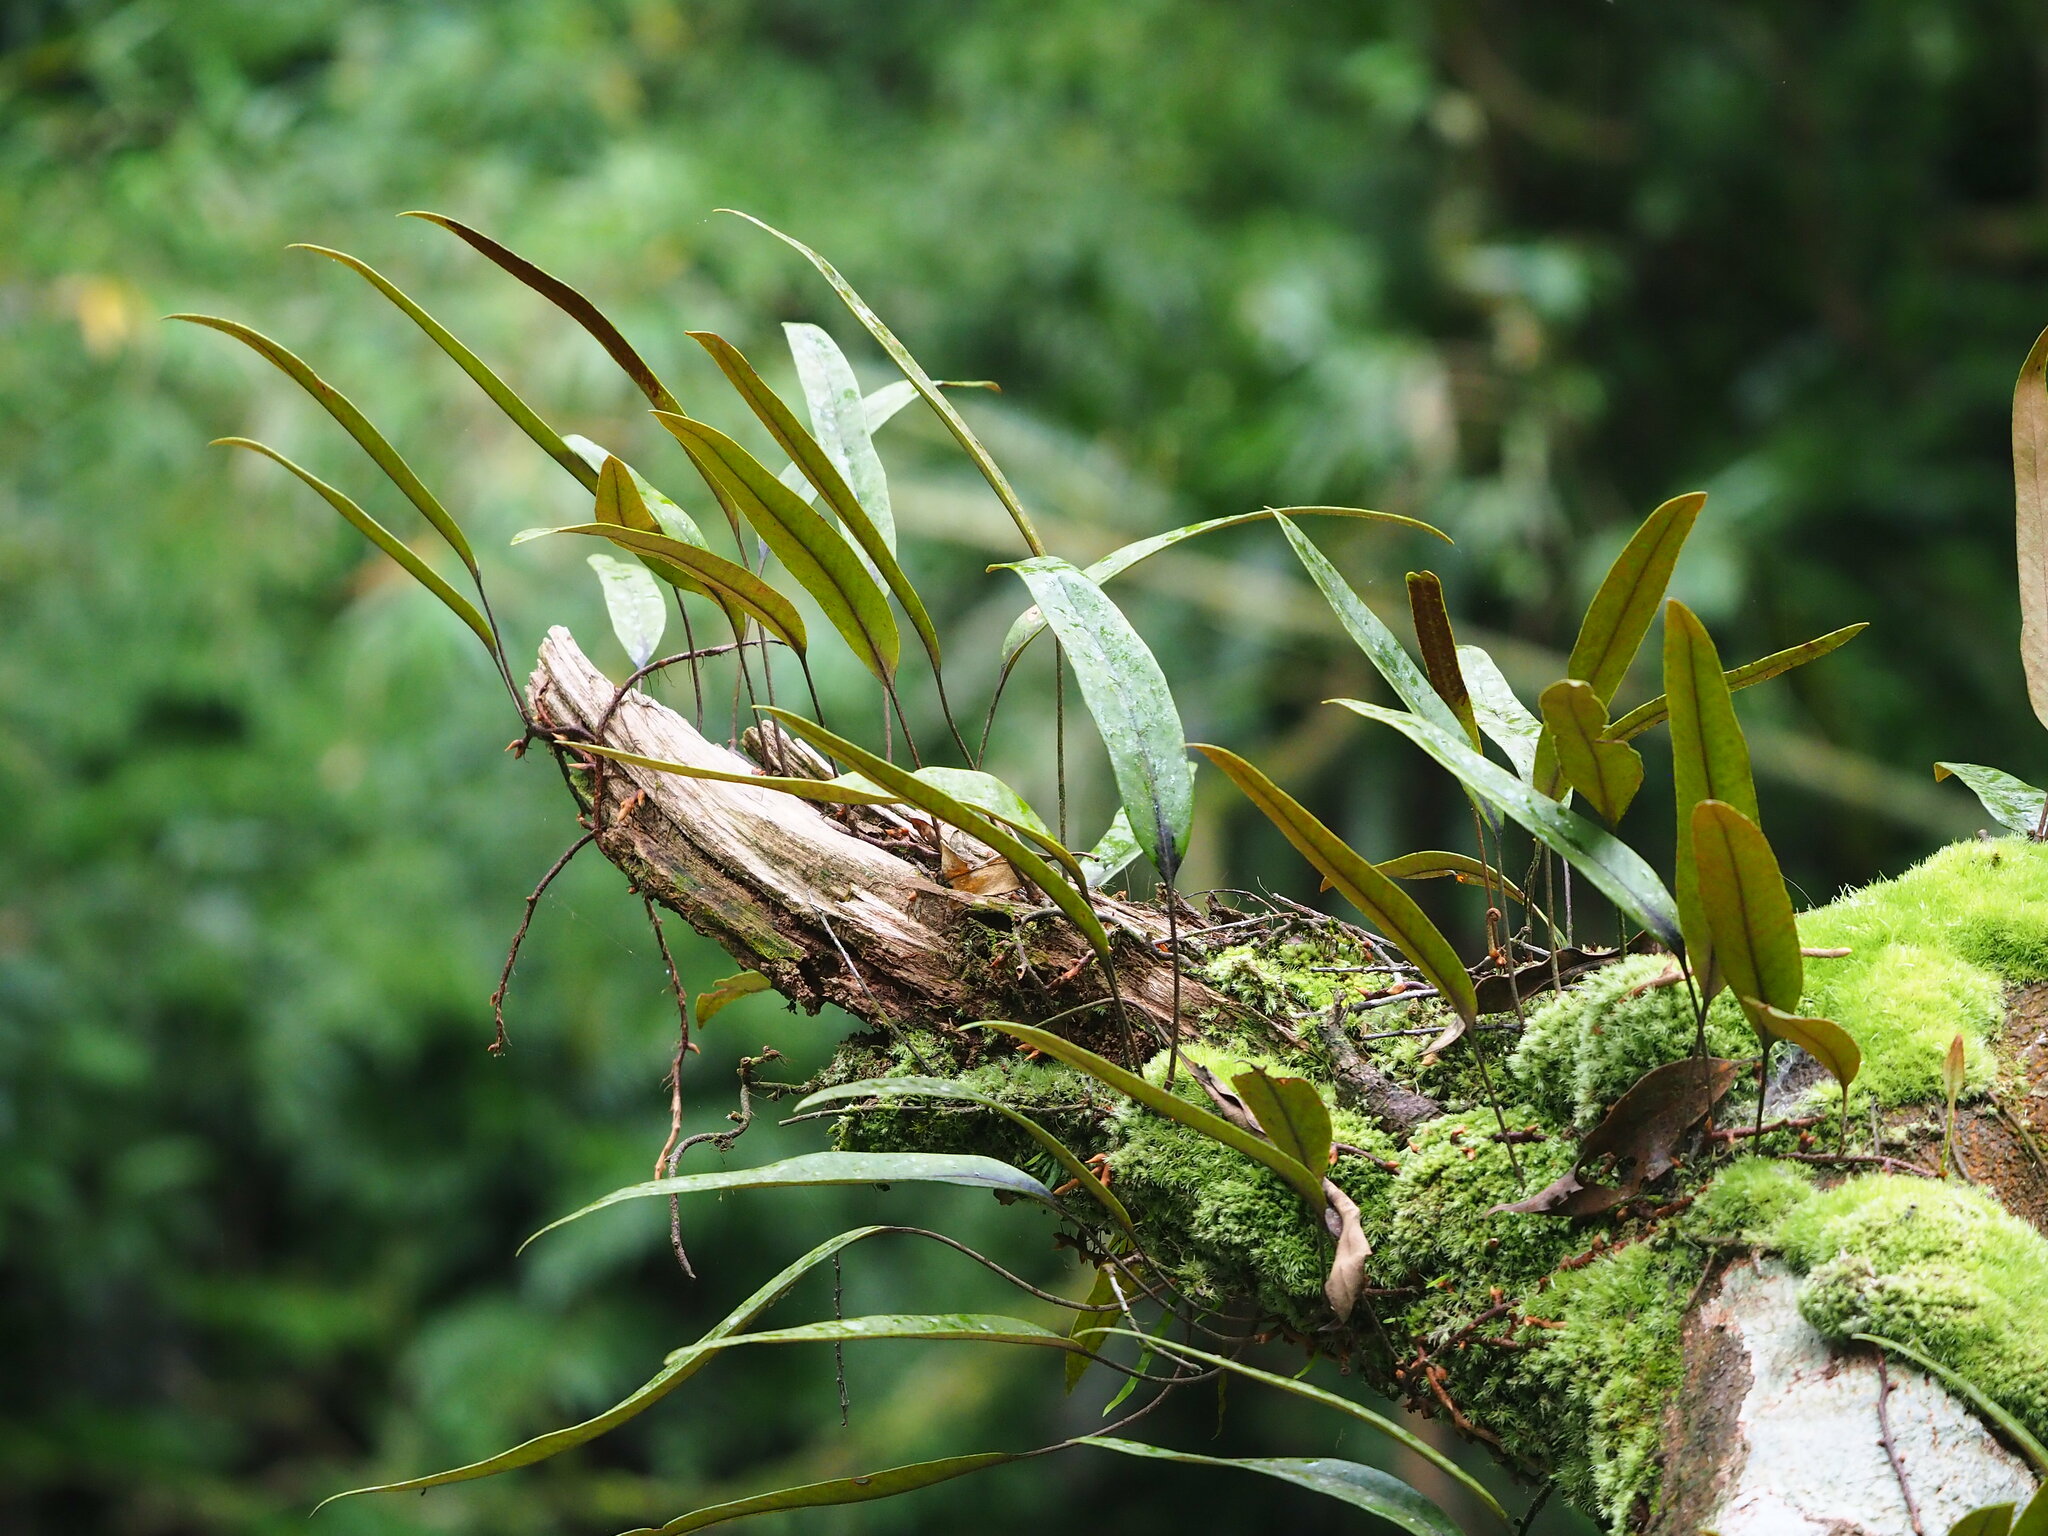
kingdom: Plantae
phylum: Tracheophyta
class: Polypodiopsida
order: Polypodiales
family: Polypodiaceae
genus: Pyrrosia
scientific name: Pyrrosia lingua
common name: Felt fern
